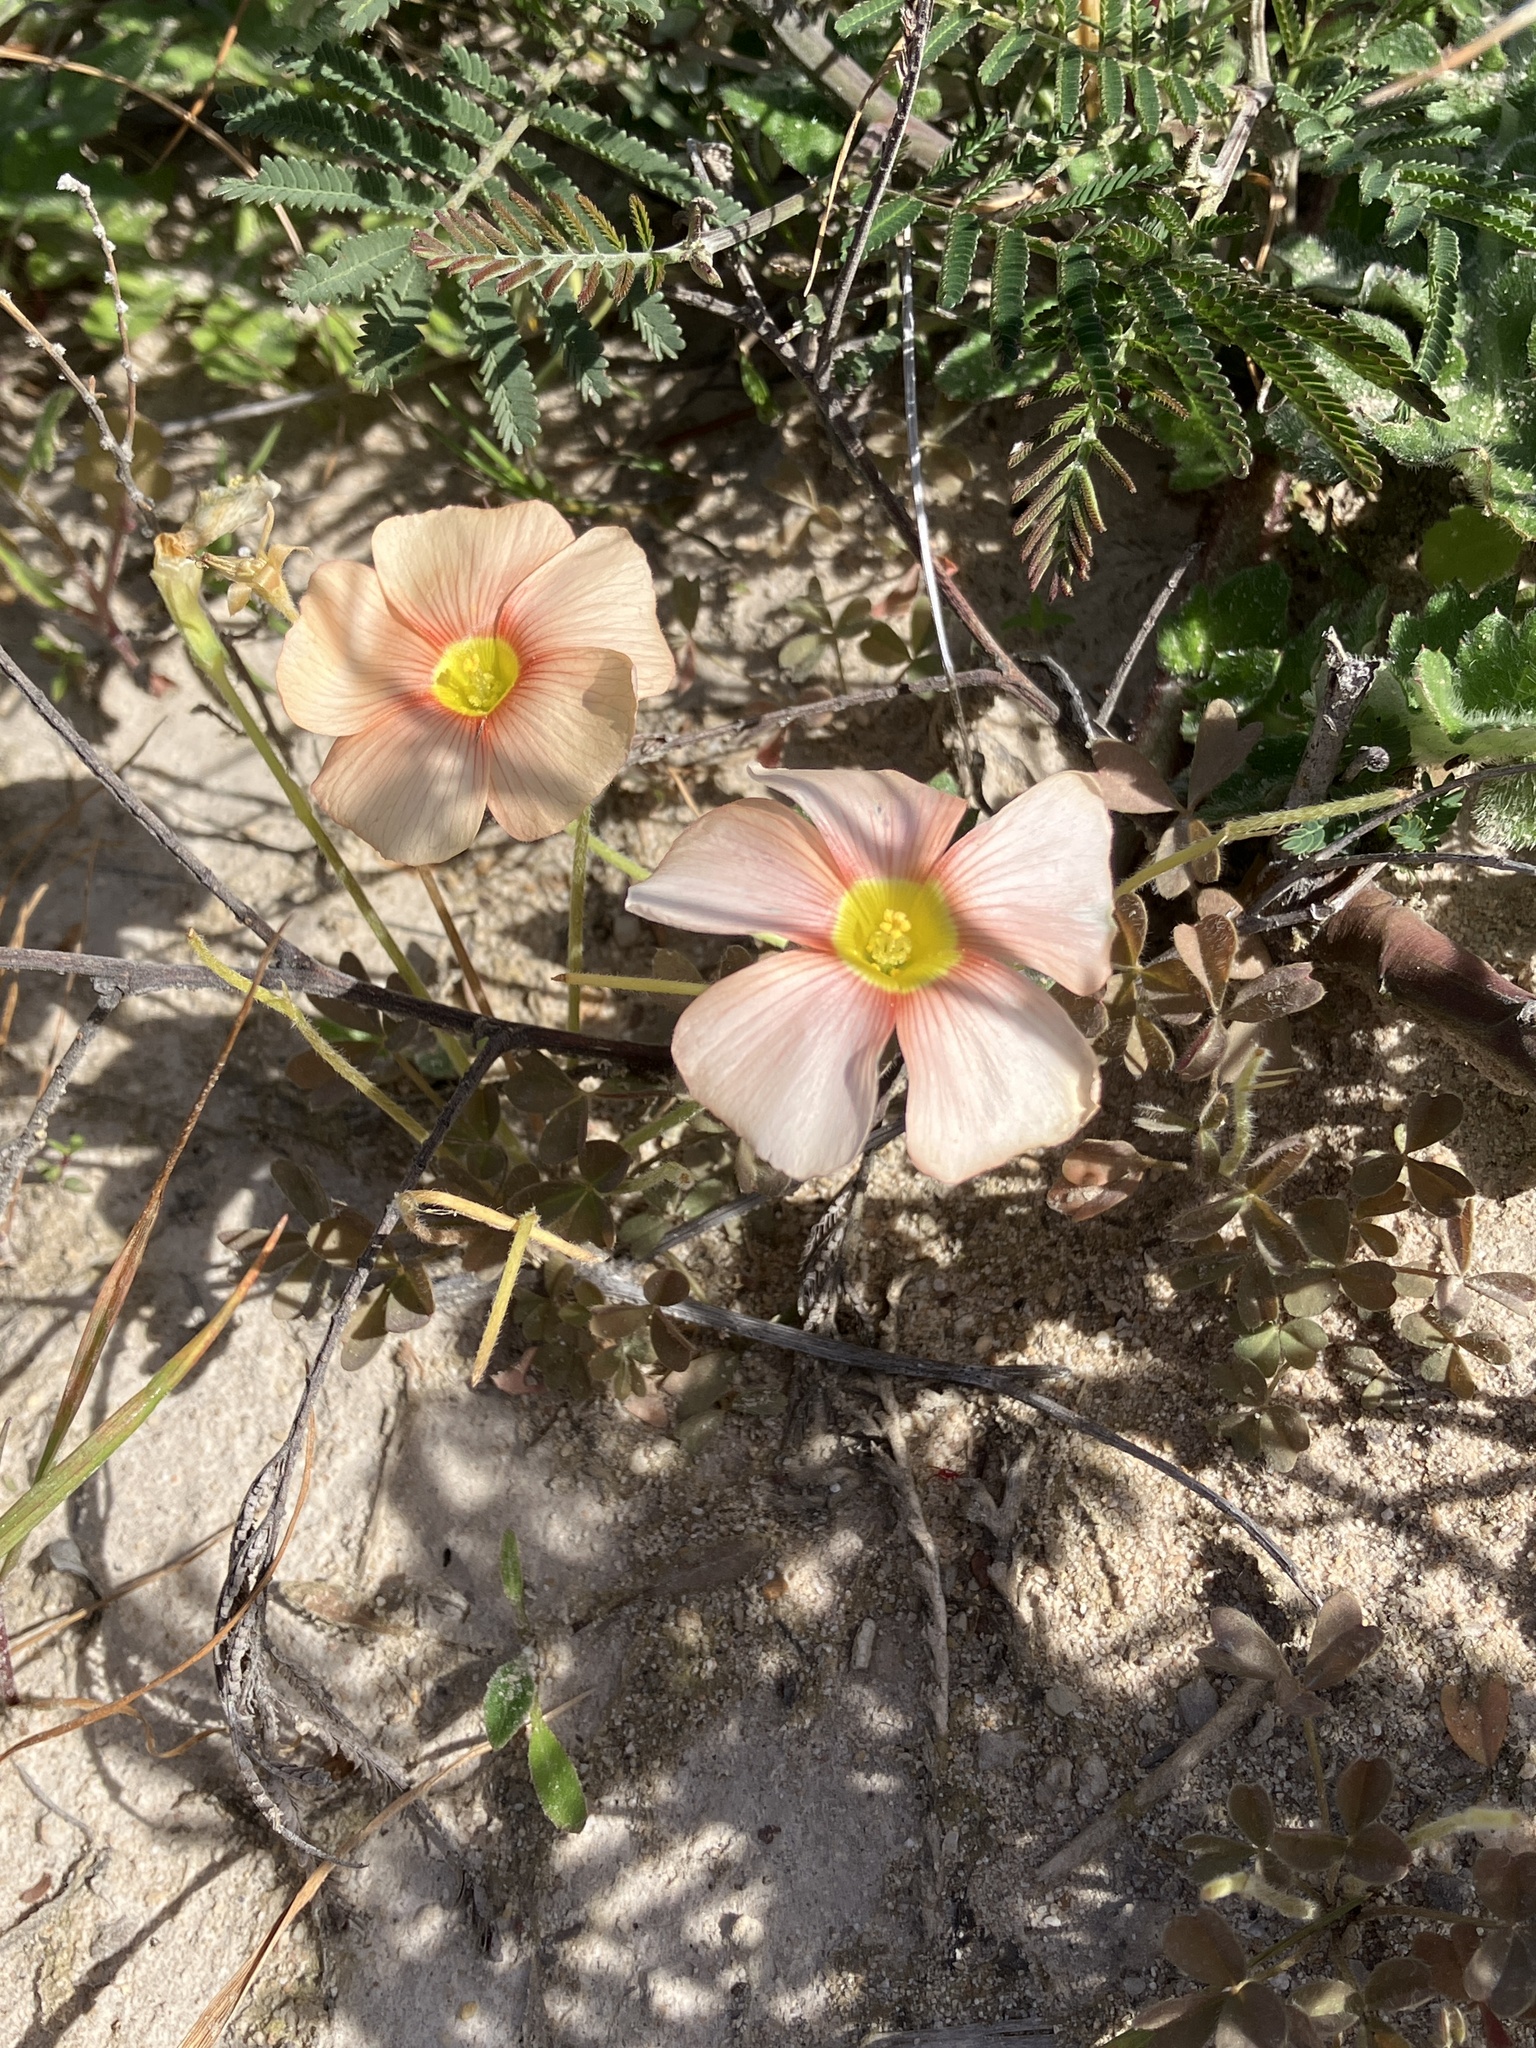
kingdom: Plantae
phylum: Tracheophyta
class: Magnoliopsida
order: Oxalidales
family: Oxalidaceae
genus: Oxalis
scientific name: Oxalis obtusa
